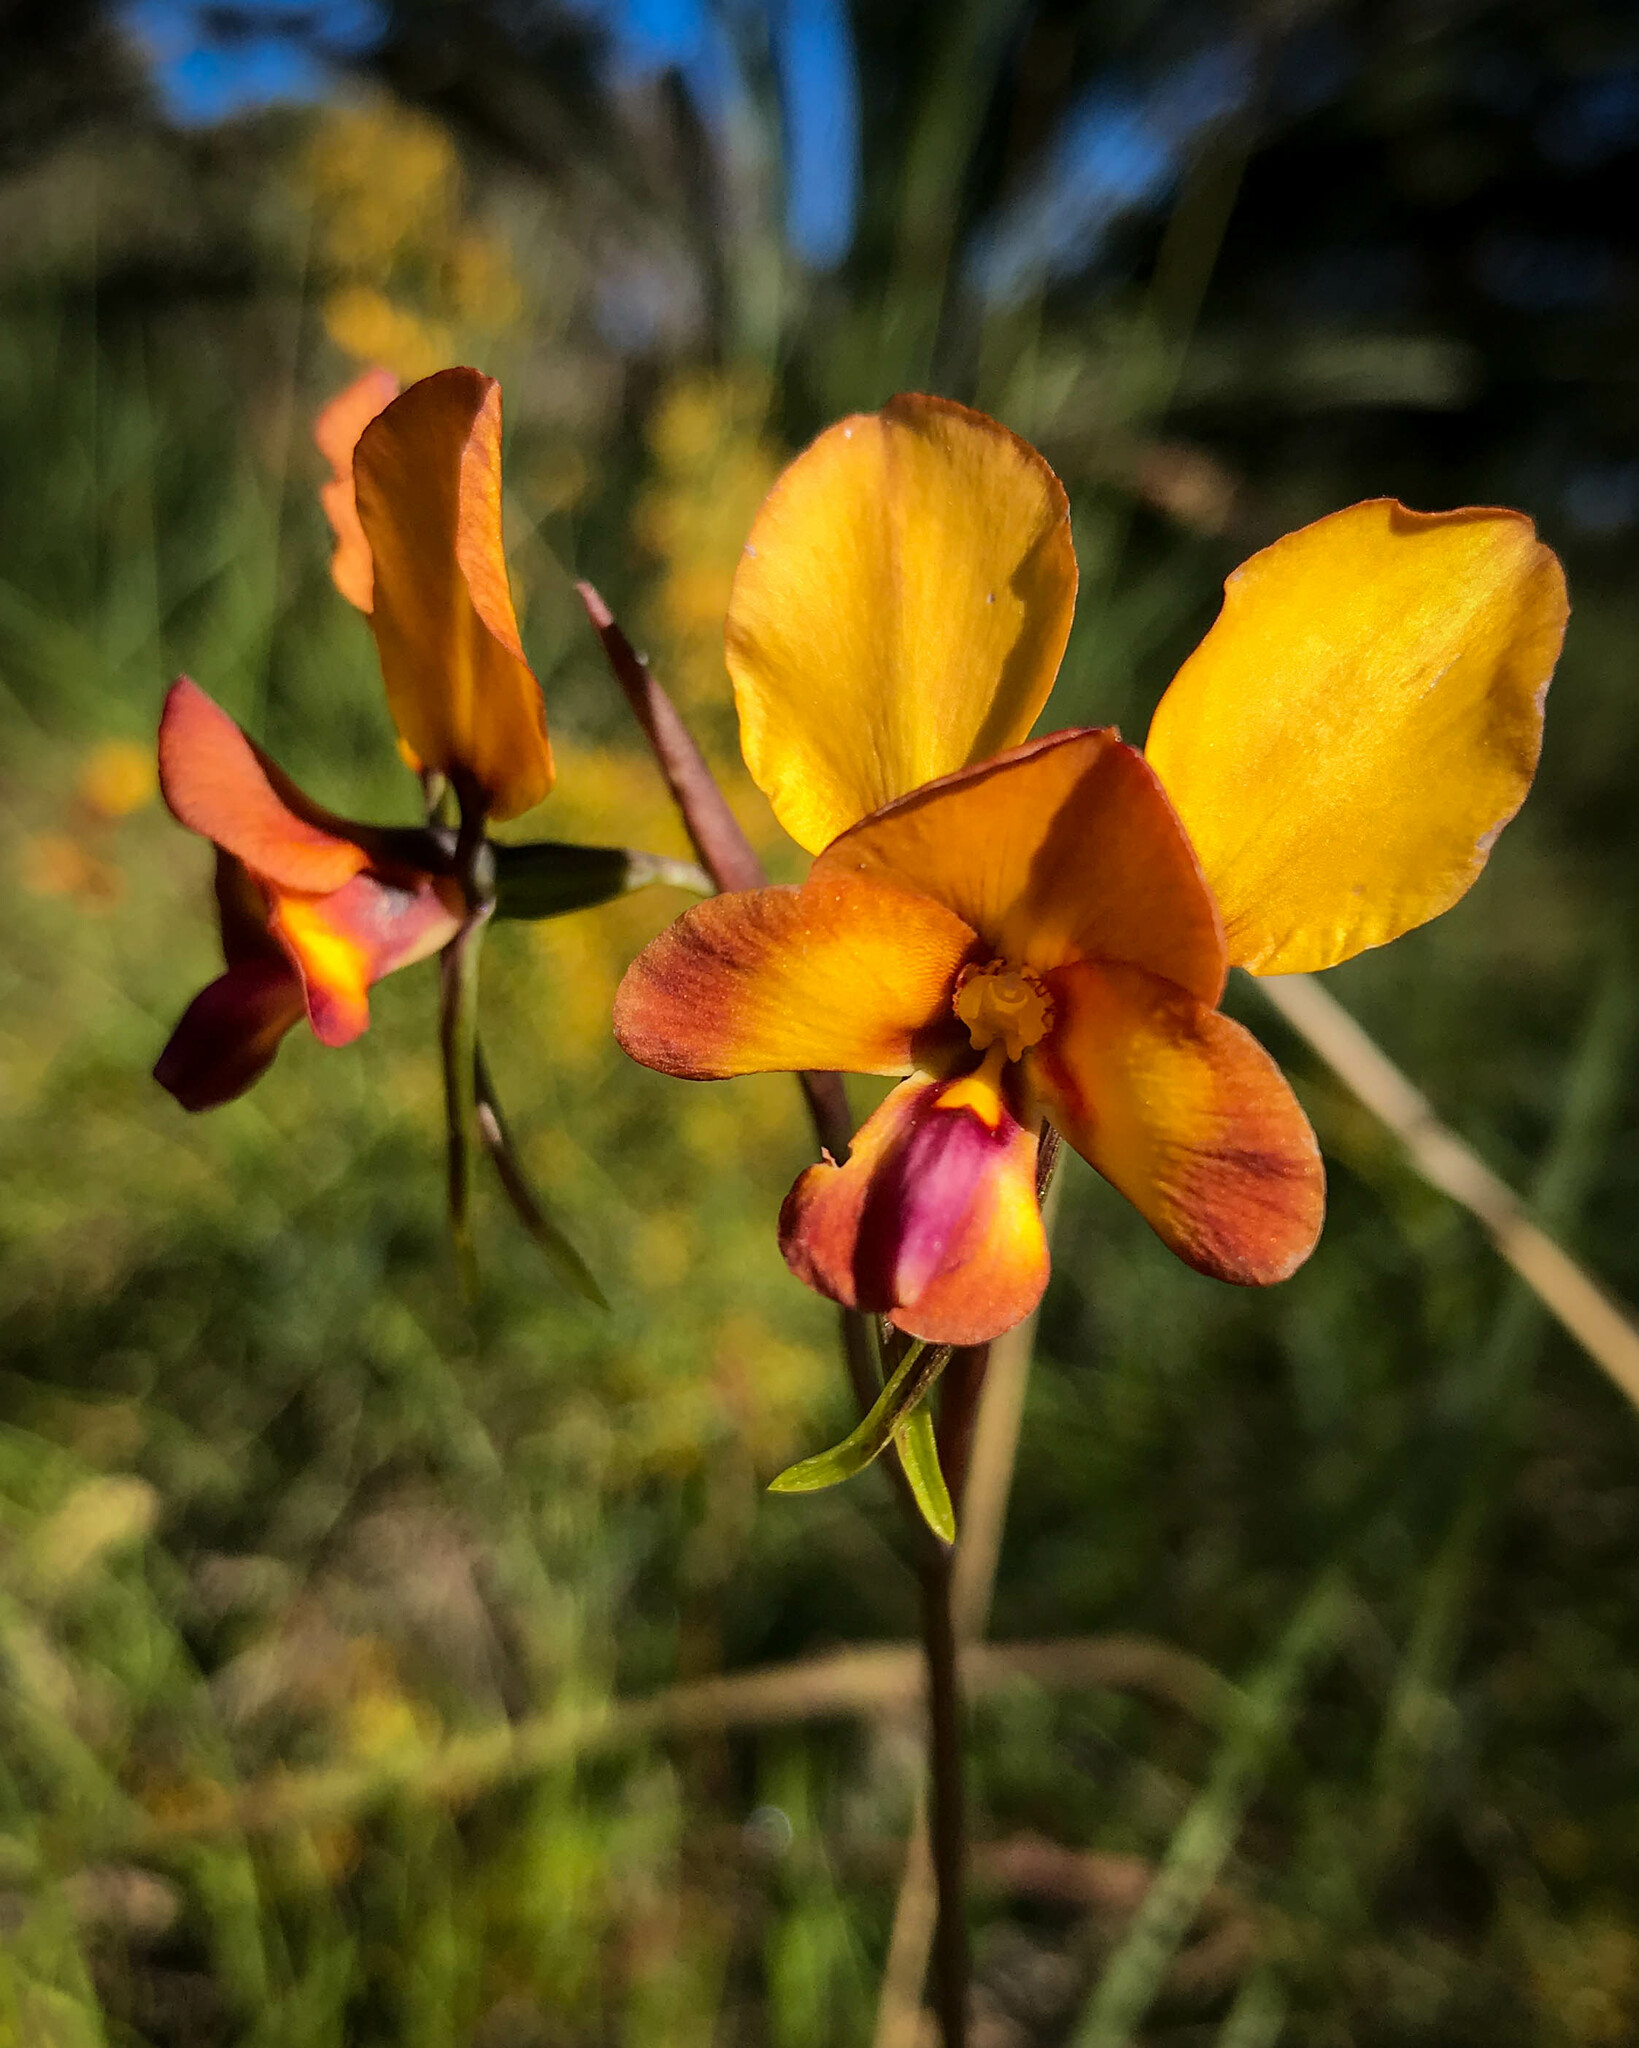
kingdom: Plantae
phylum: Tracheophyta
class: Liliopsida
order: Asparagales
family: Orchidaceae
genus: Diuris
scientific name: Diuris magnifica
